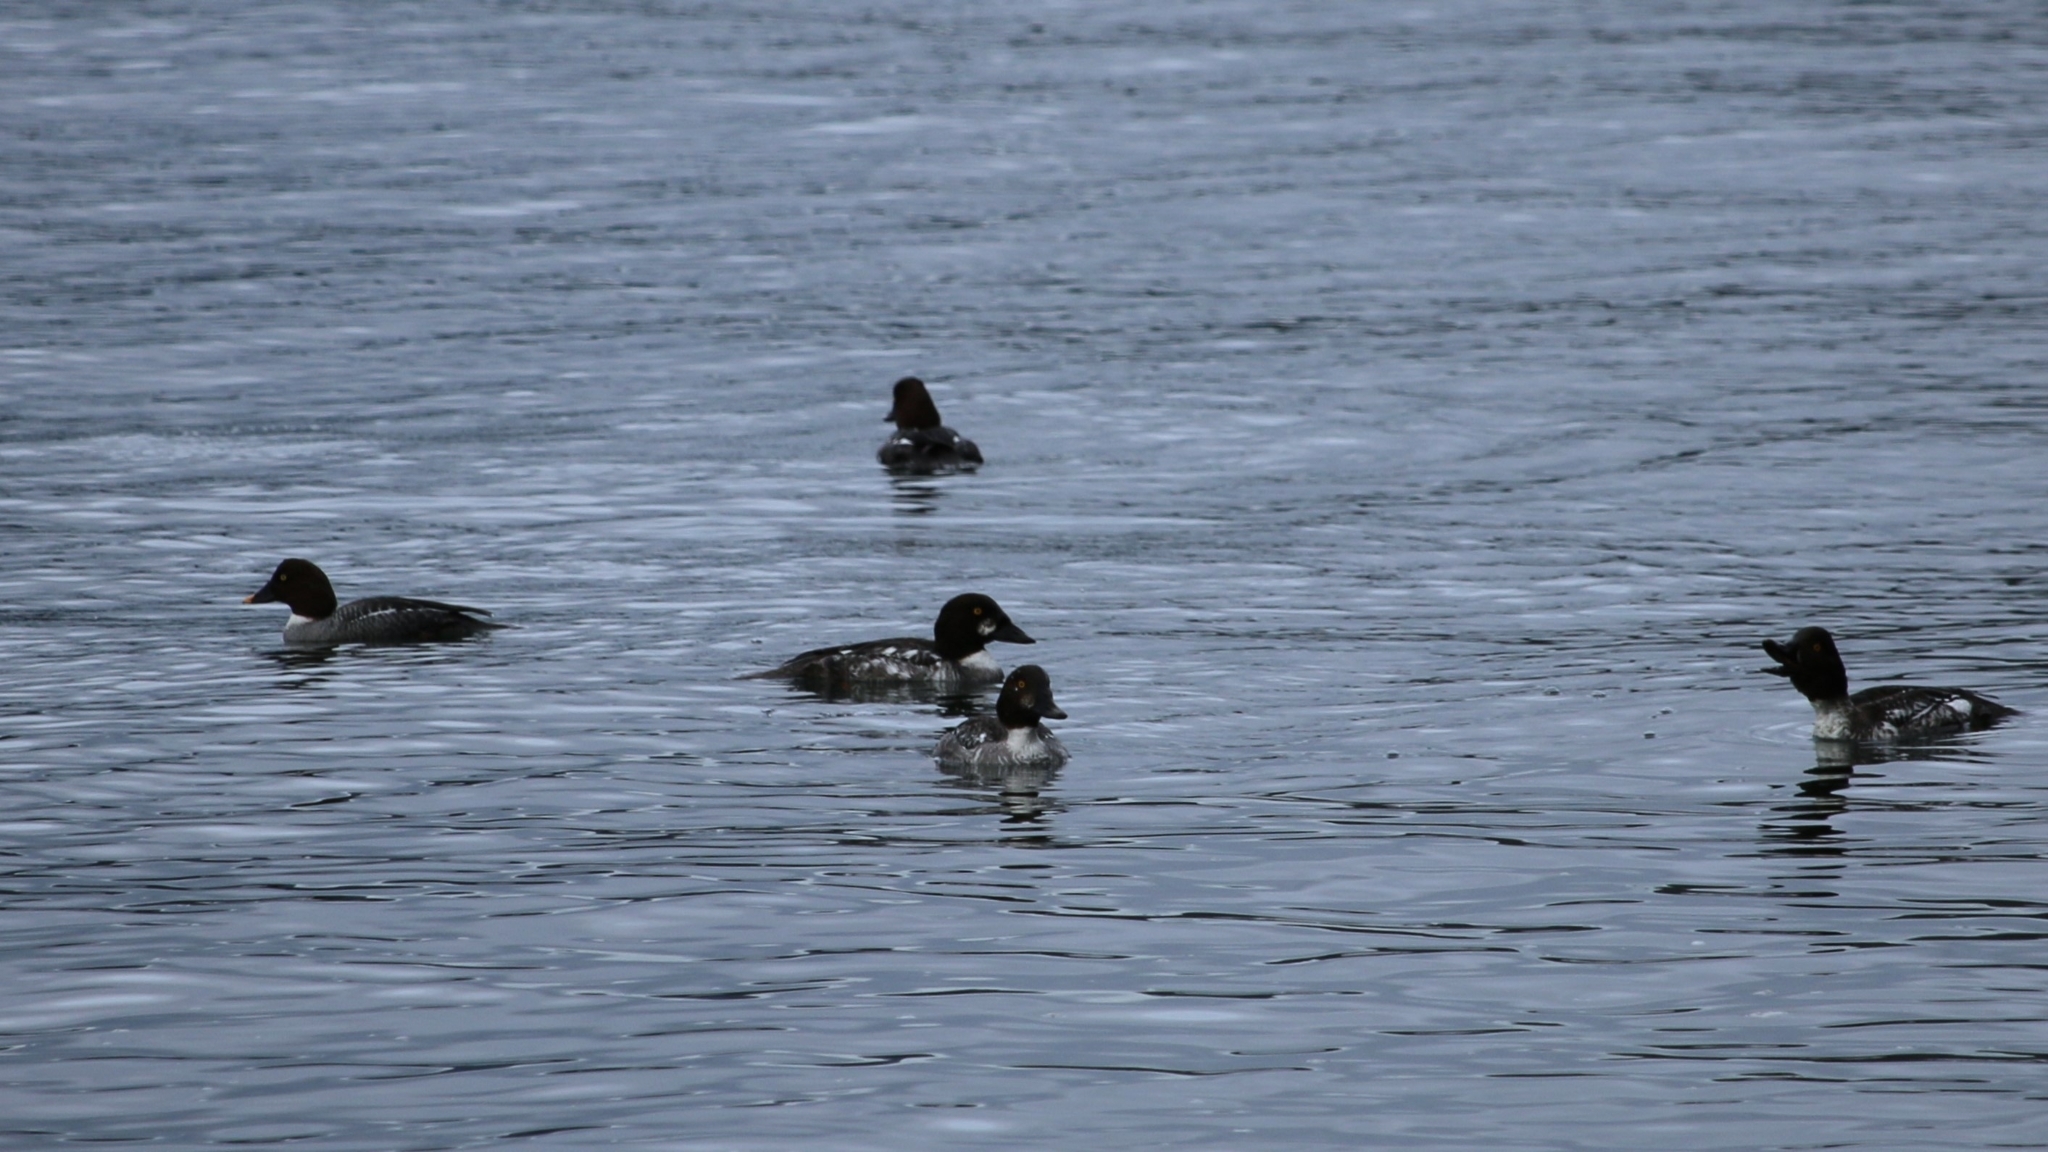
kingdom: Animalia
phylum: Chordata
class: Aves
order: Anseriformes
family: Anatidae
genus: Bucephala
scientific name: Bucephala clangula
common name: Common goldeneye
